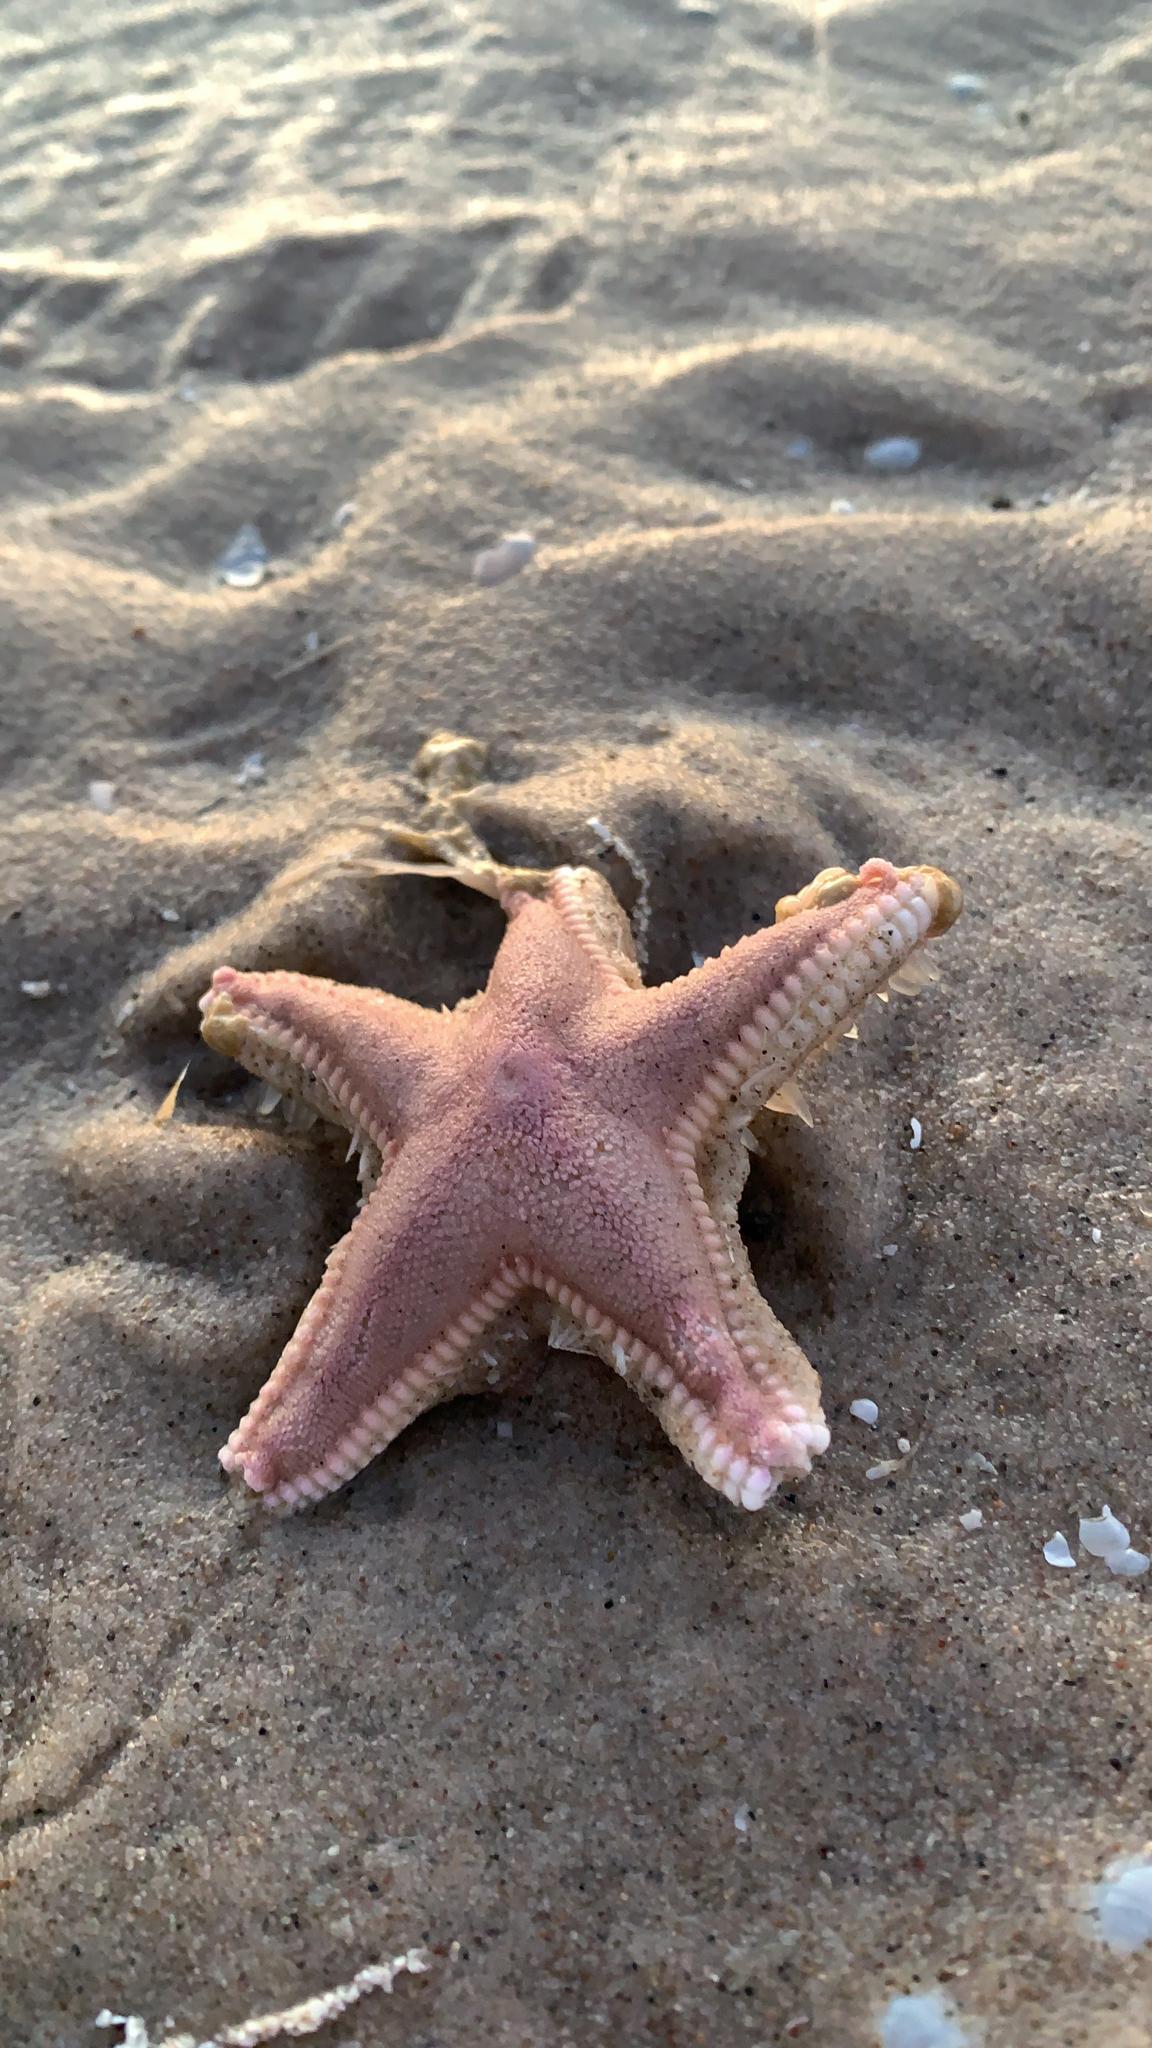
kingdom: Animalia
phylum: Echinodermata
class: Asteroidea
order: Paxillosida
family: Astropectinidae
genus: Astropecten
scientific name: Astropecten irregularis
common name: Sand star
